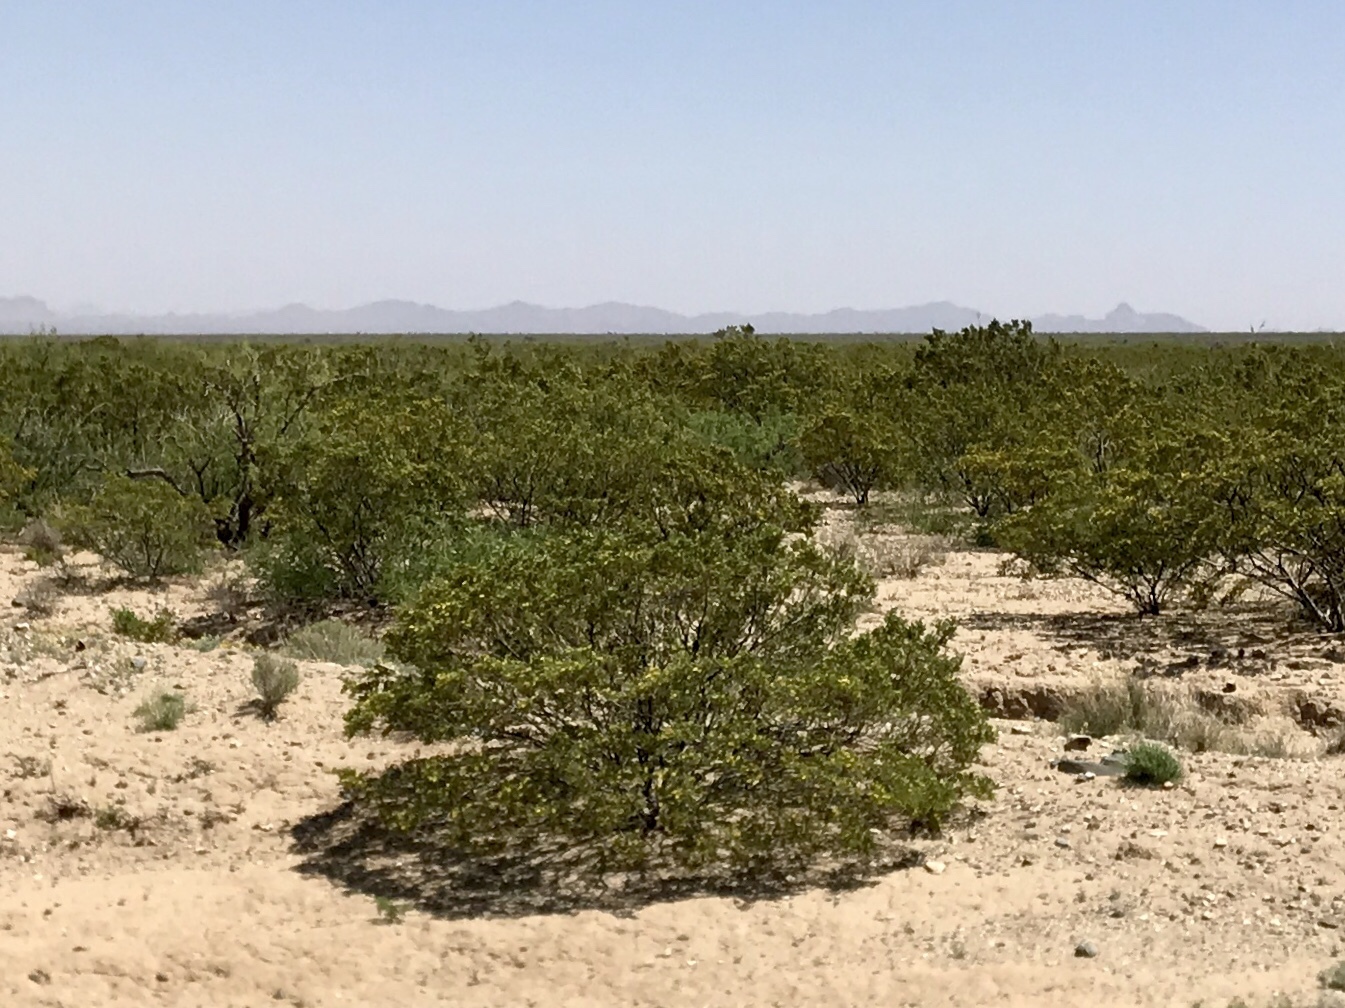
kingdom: Plantae
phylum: Tracheophyta
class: Magnoliopsida
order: Zygophyllales
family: Zygophyllaceae
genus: Larrea
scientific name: Larrea tridentata
